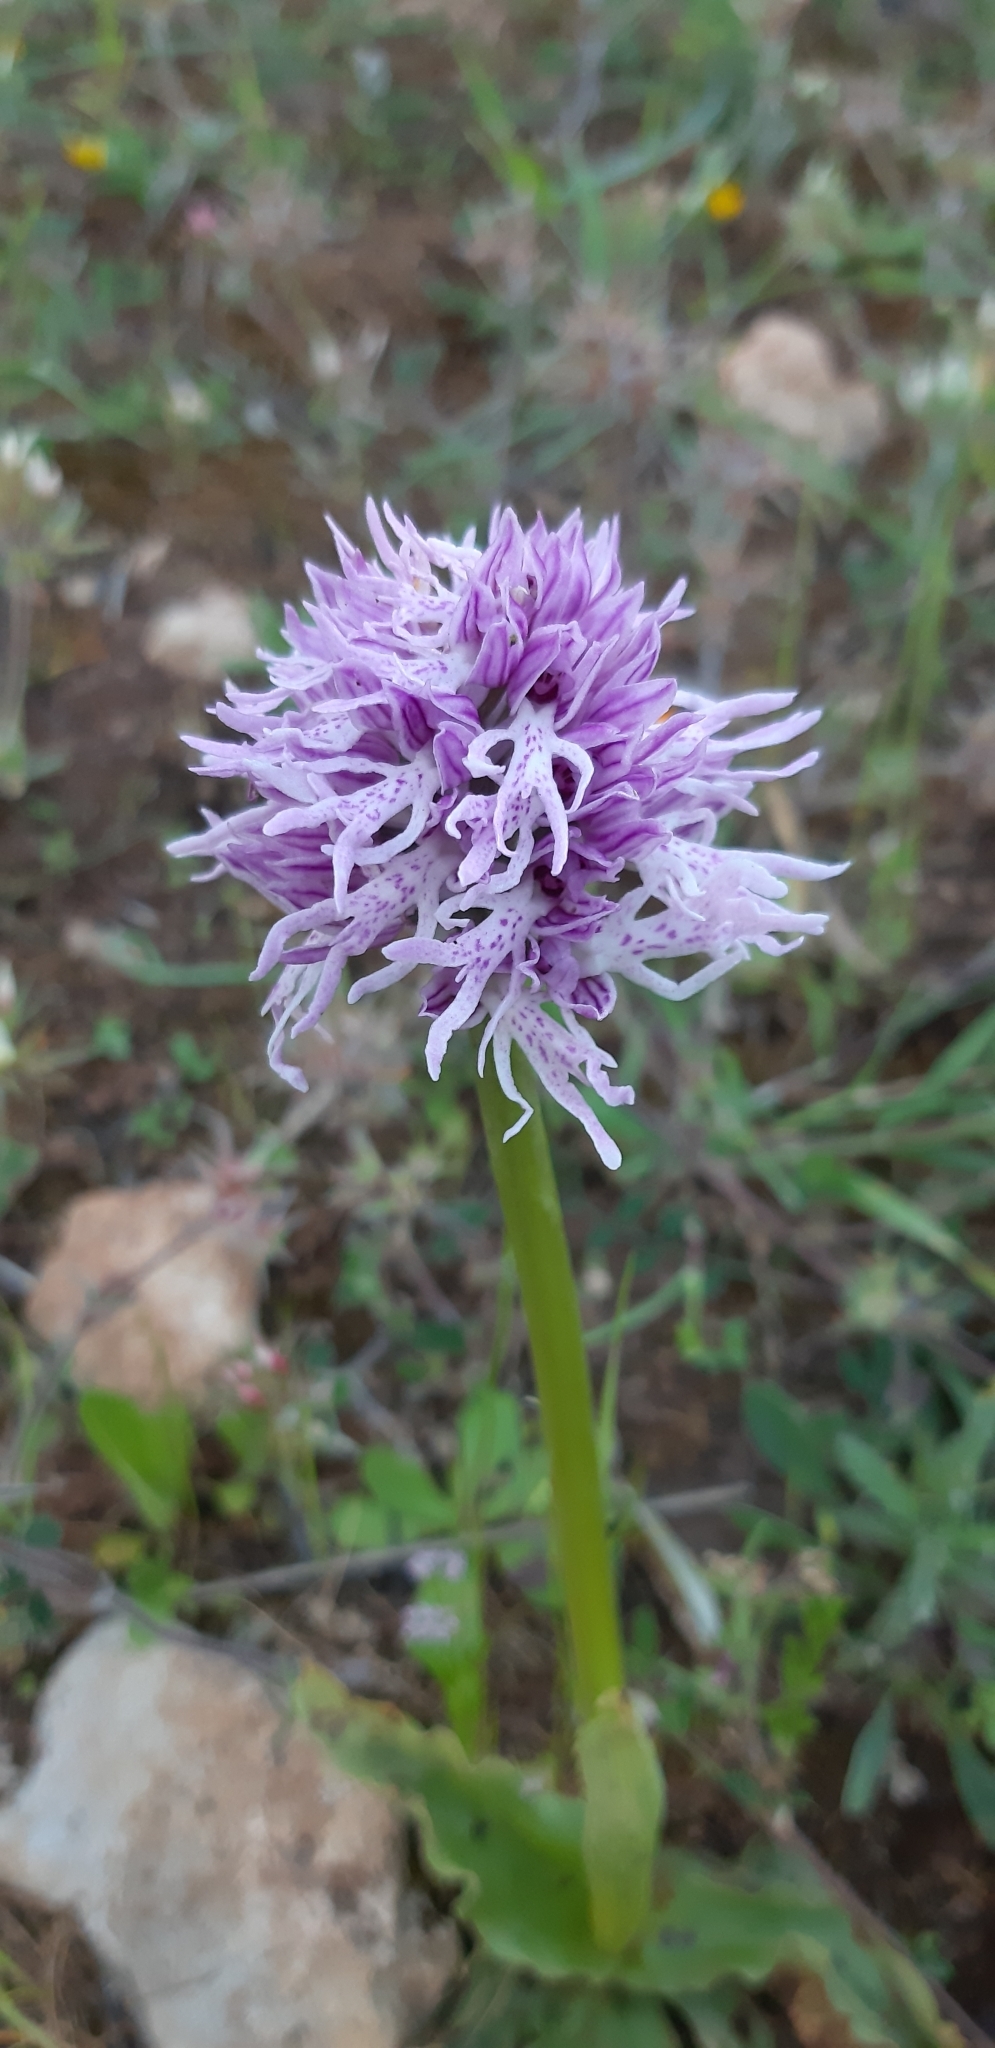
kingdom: Plantae
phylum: Tracheophyta
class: Liliopsida
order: Asparagales
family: Orchidaceae
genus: Orchis
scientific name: Orchis italica
